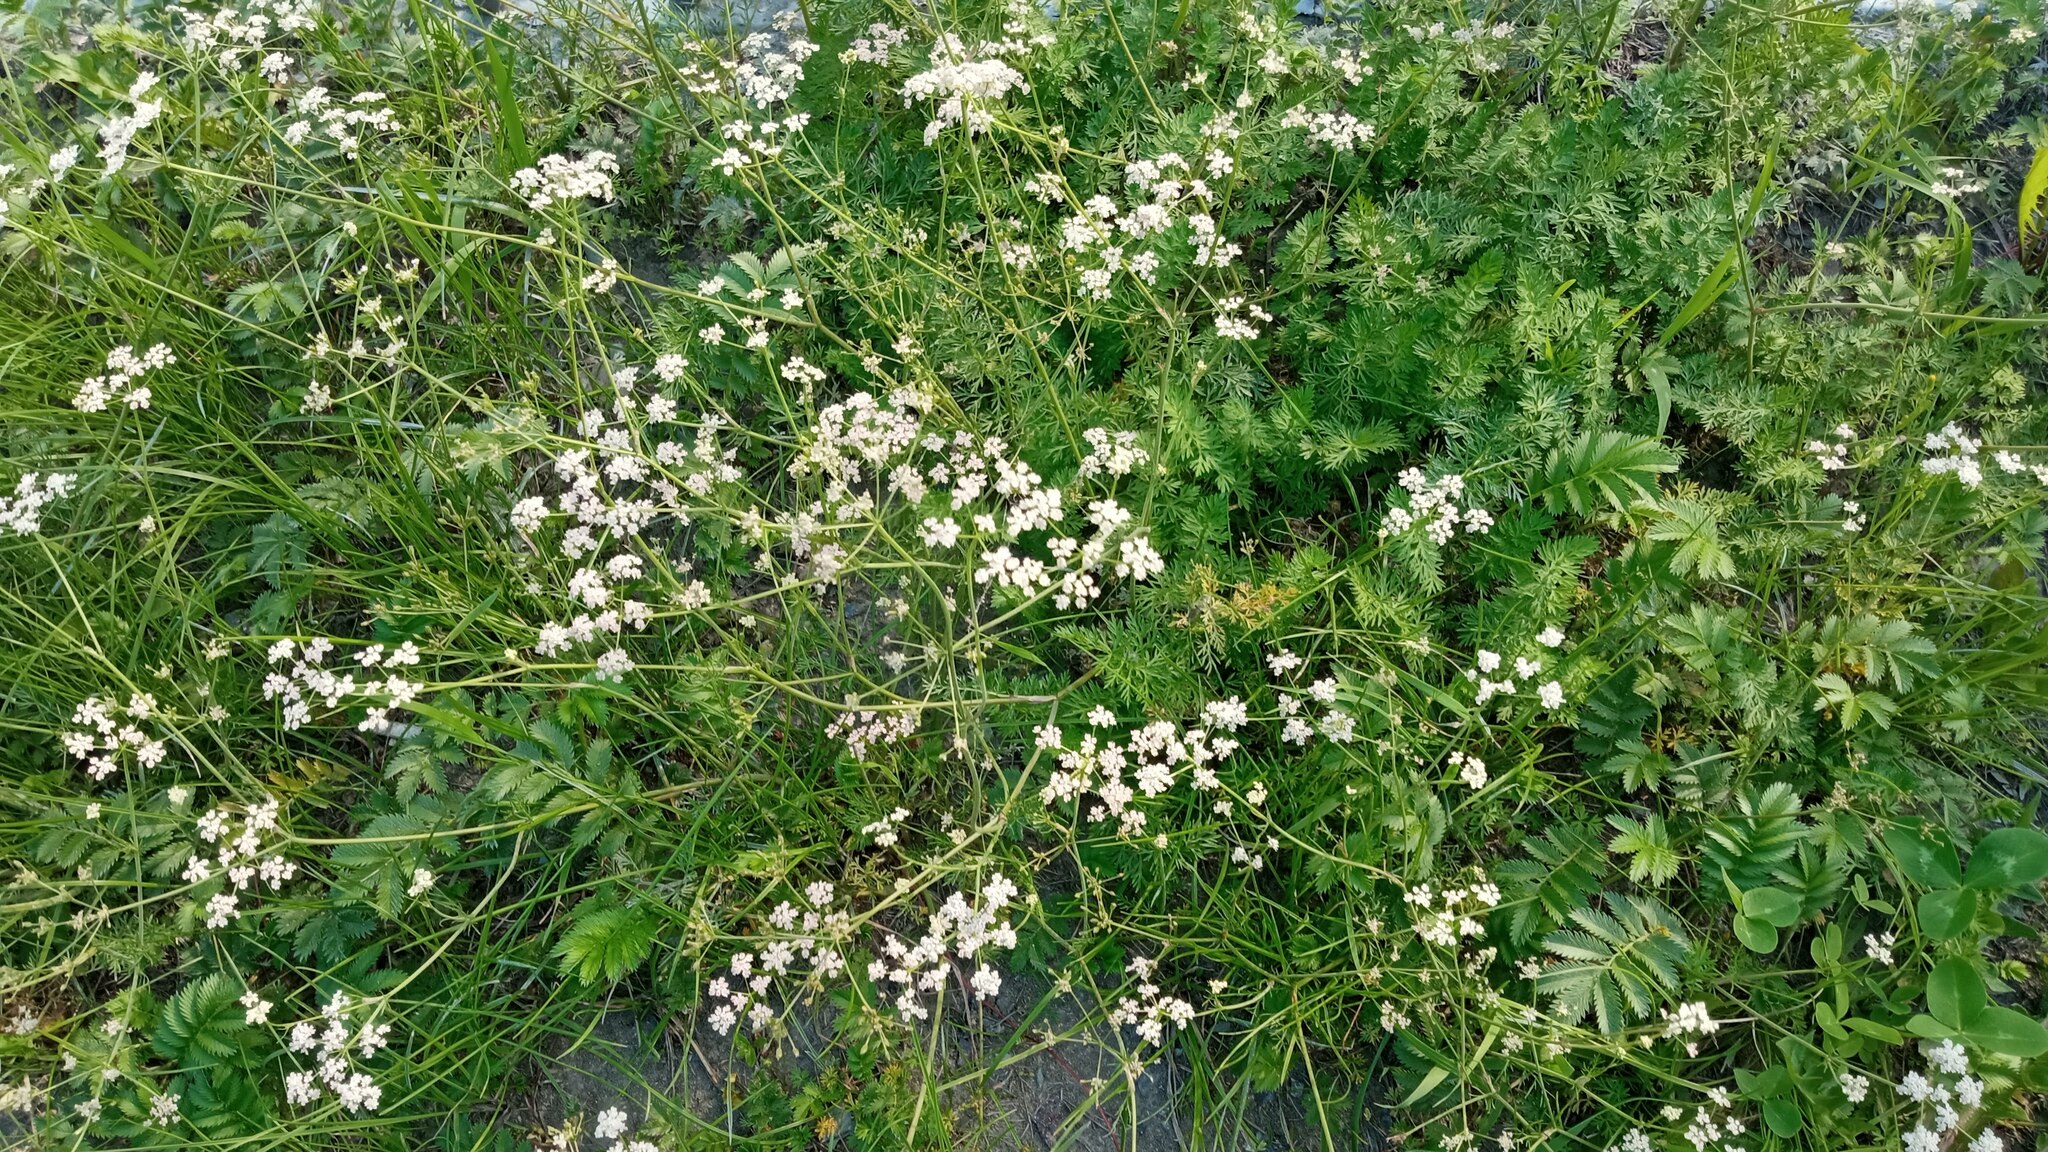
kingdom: Plantae
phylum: Tracheophyta
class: Magnoliopsida
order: Apiales
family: Apiaceae
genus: Carum
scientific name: Carum carvi
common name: Caraway
